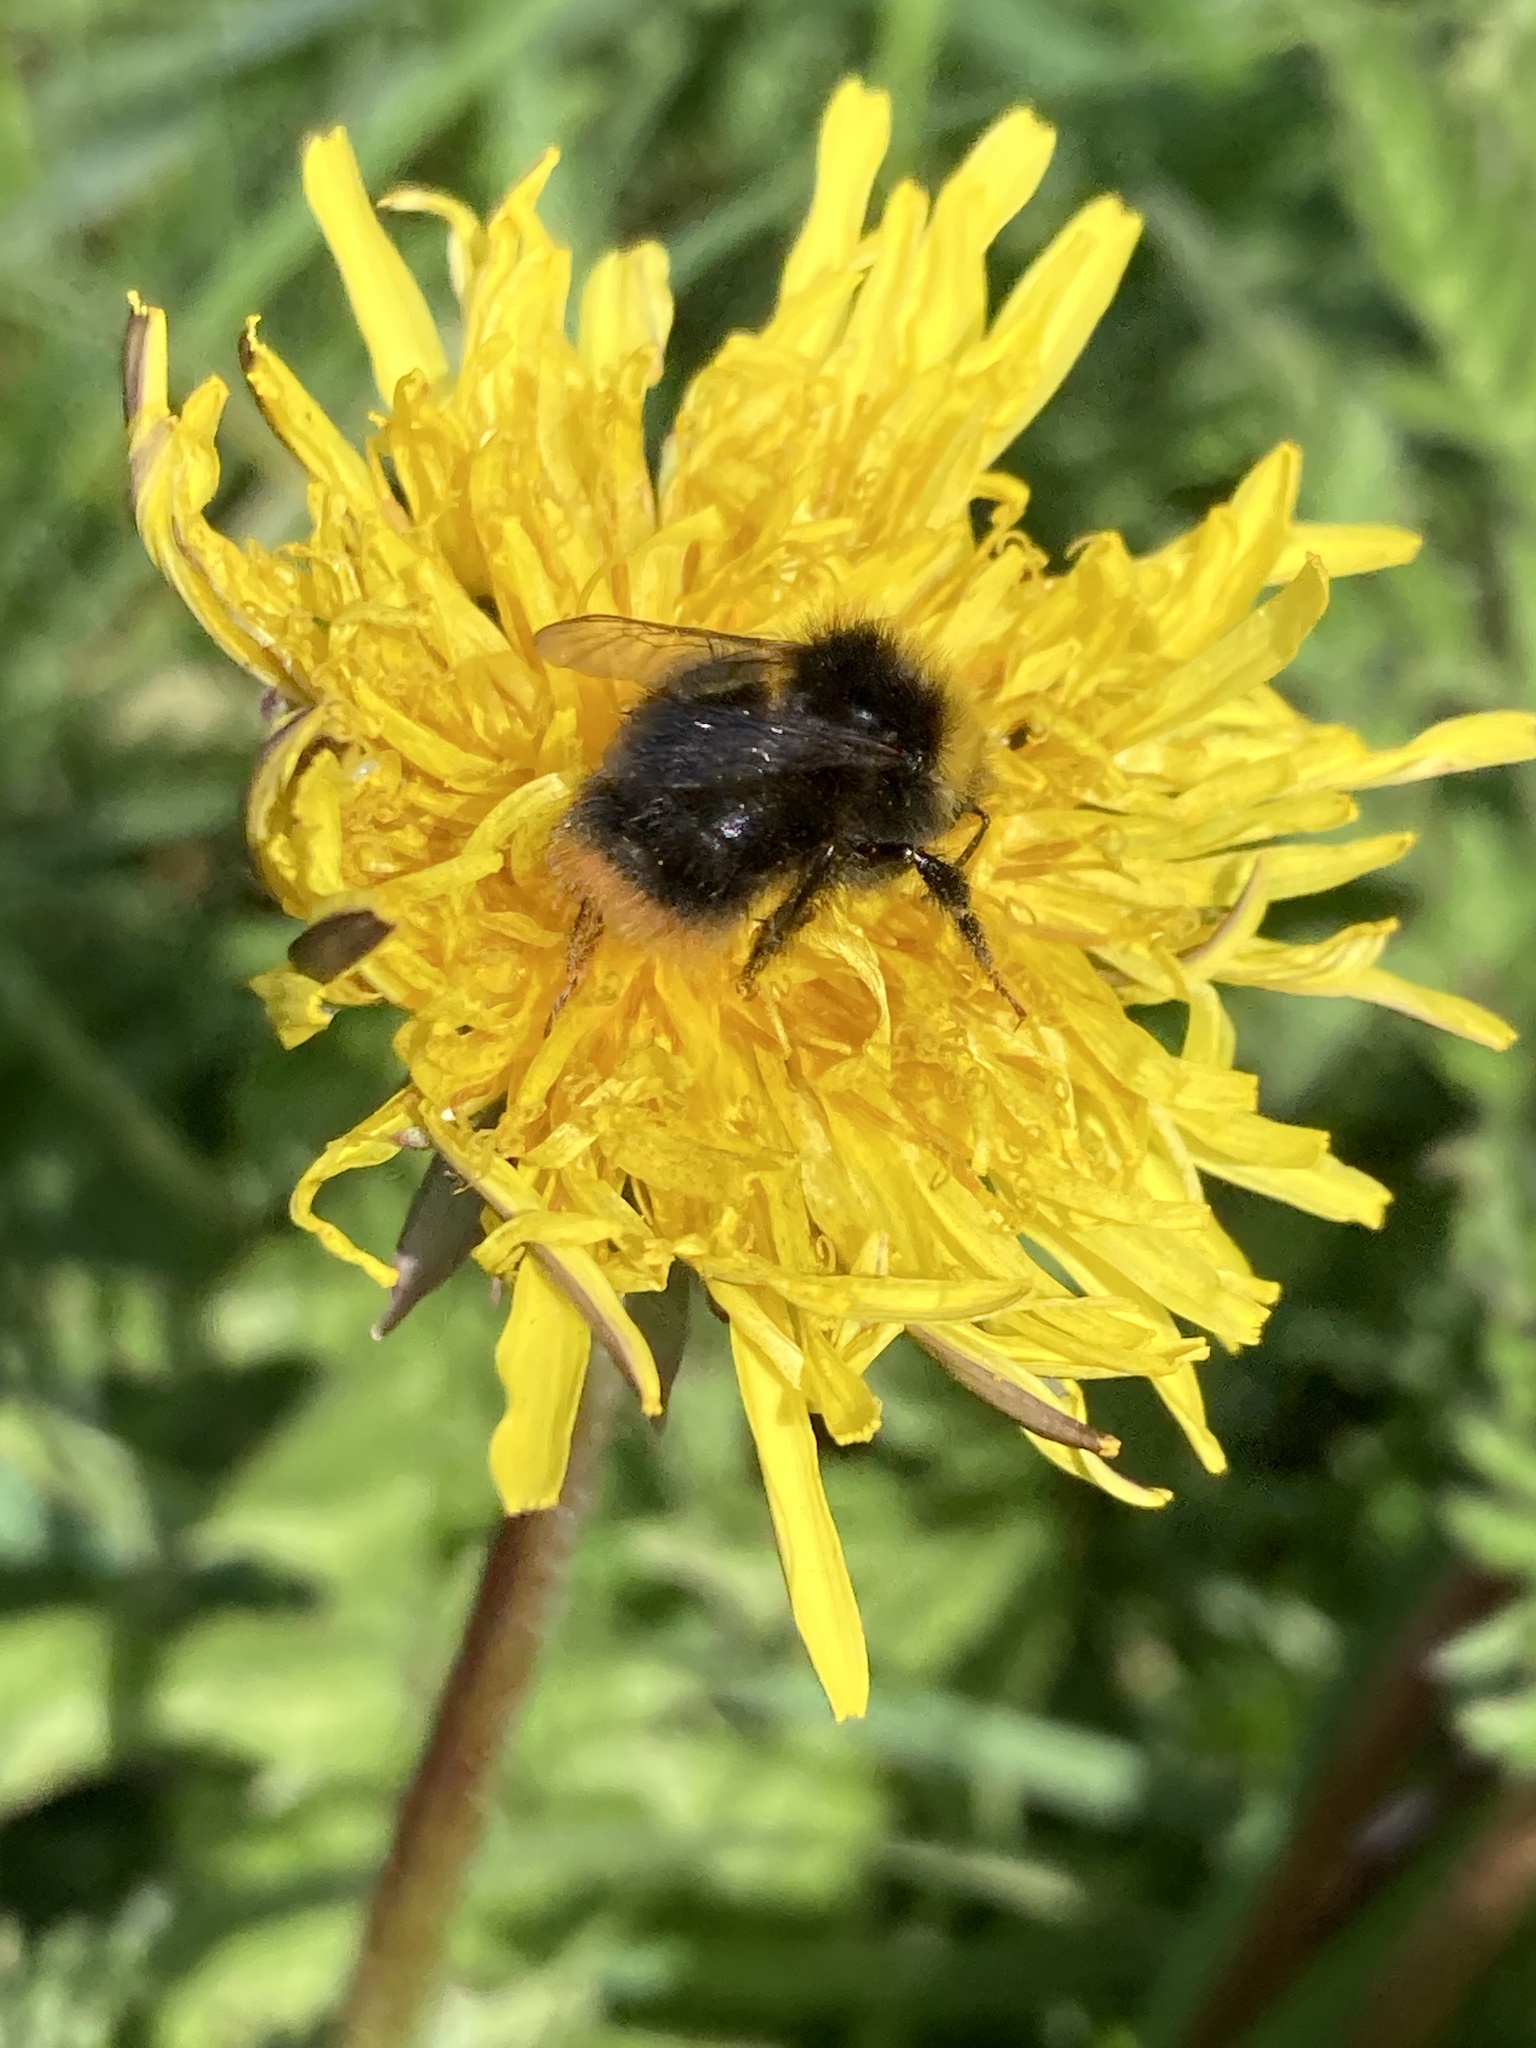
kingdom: Animalia
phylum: Arthropoda
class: Insecta
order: Hymenoptera
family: Apidae
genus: Bombus
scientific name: Bombus pratorum
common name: Early humble-bee
